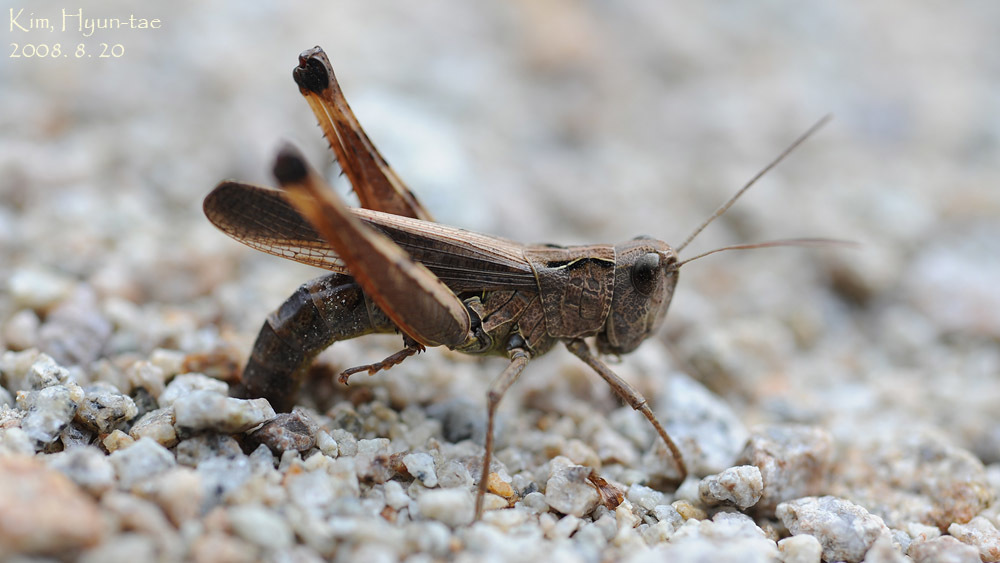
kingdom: Animalia
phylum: Arthropoda
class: Insecta
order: Orthoptera
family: Acrididae
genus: Megaulacobothrus
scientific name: Megaulacobothrus aethalinus
